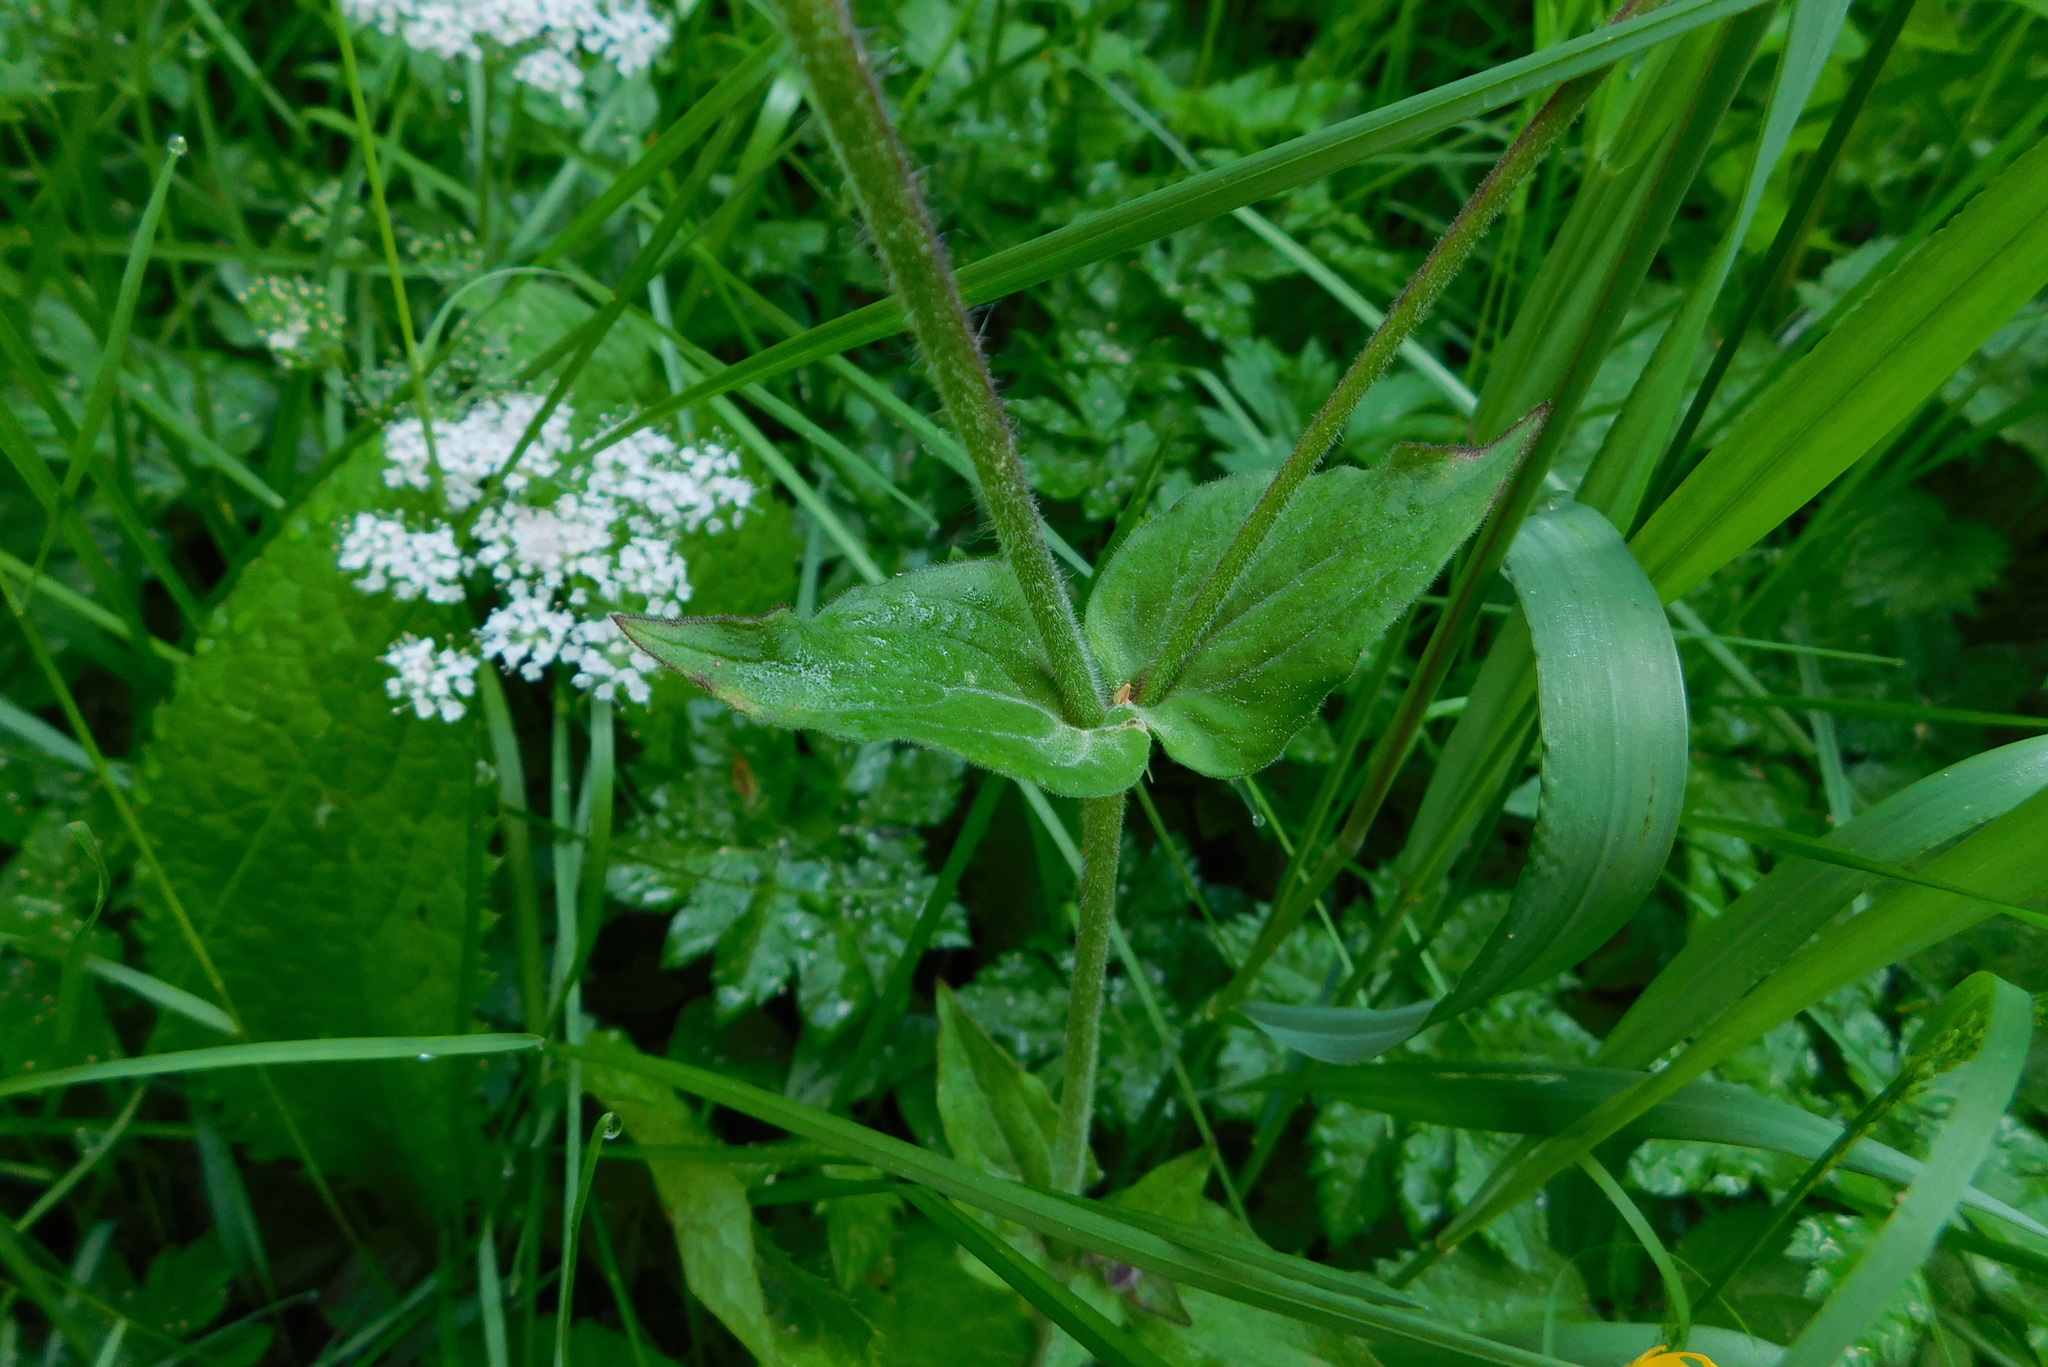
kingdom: Plantae
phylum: Tracheophyta
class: Magnoliopsida
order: Caryophyllales
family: Caryophyllaceae
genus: Silene
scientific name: Silene dioica
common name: Red campion
